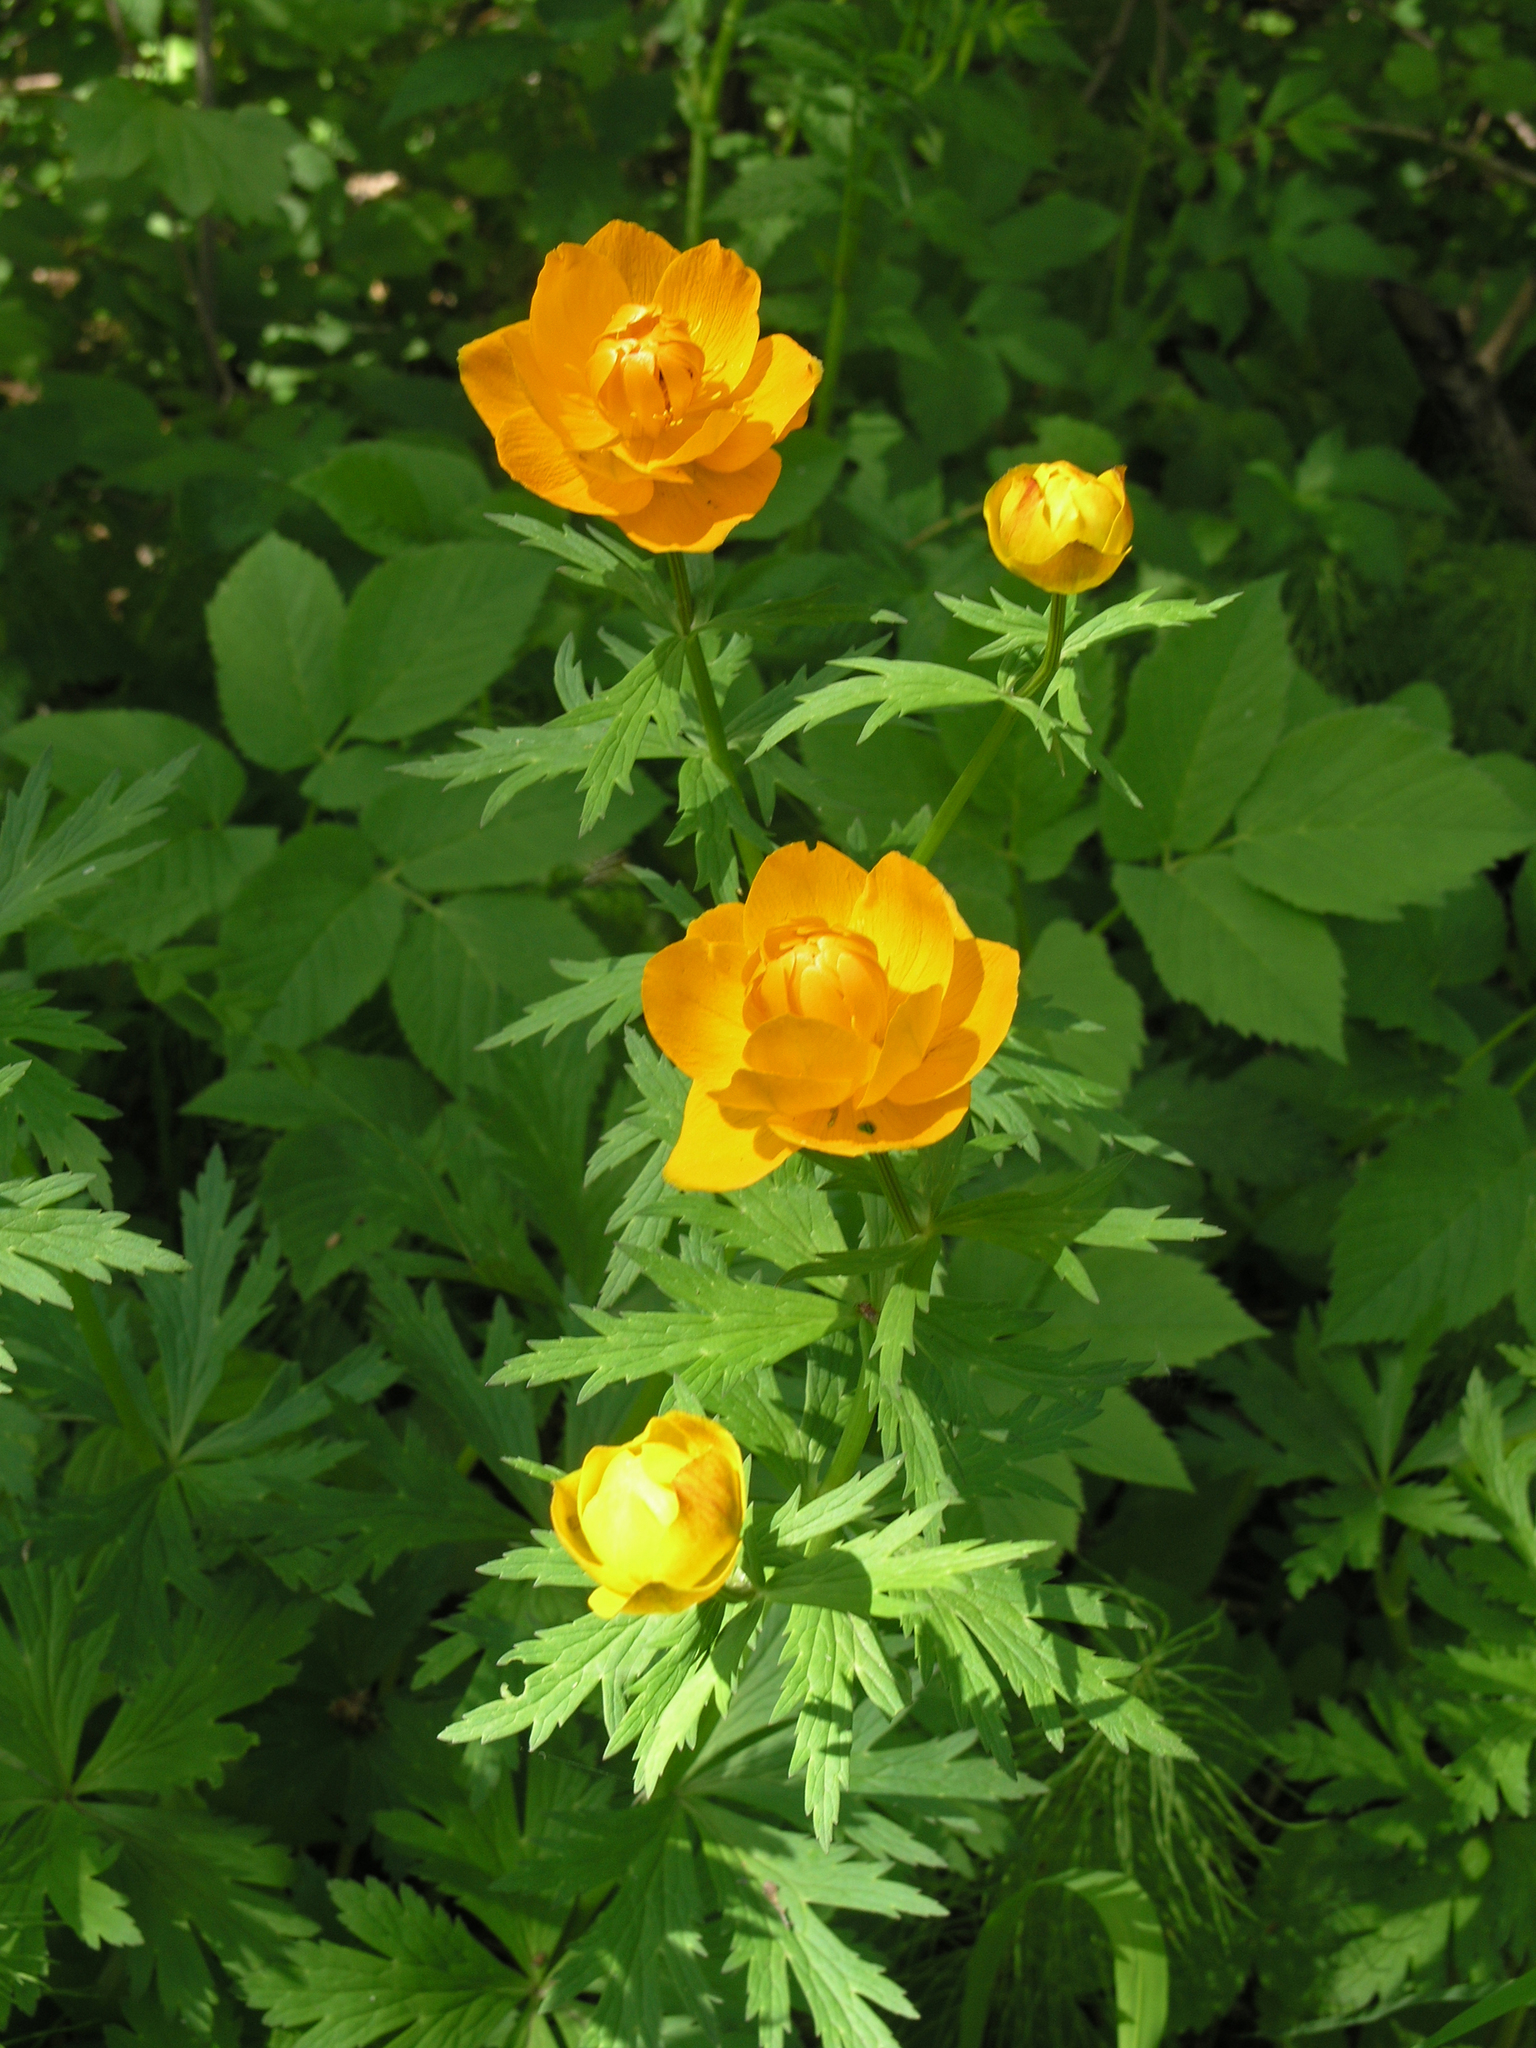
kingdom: Plantae
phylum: Tracheophyta
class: Magnoliopsida
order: Ranunculales
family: Ranunculaceae
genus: Trollius
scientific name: Trollius asiaticus
